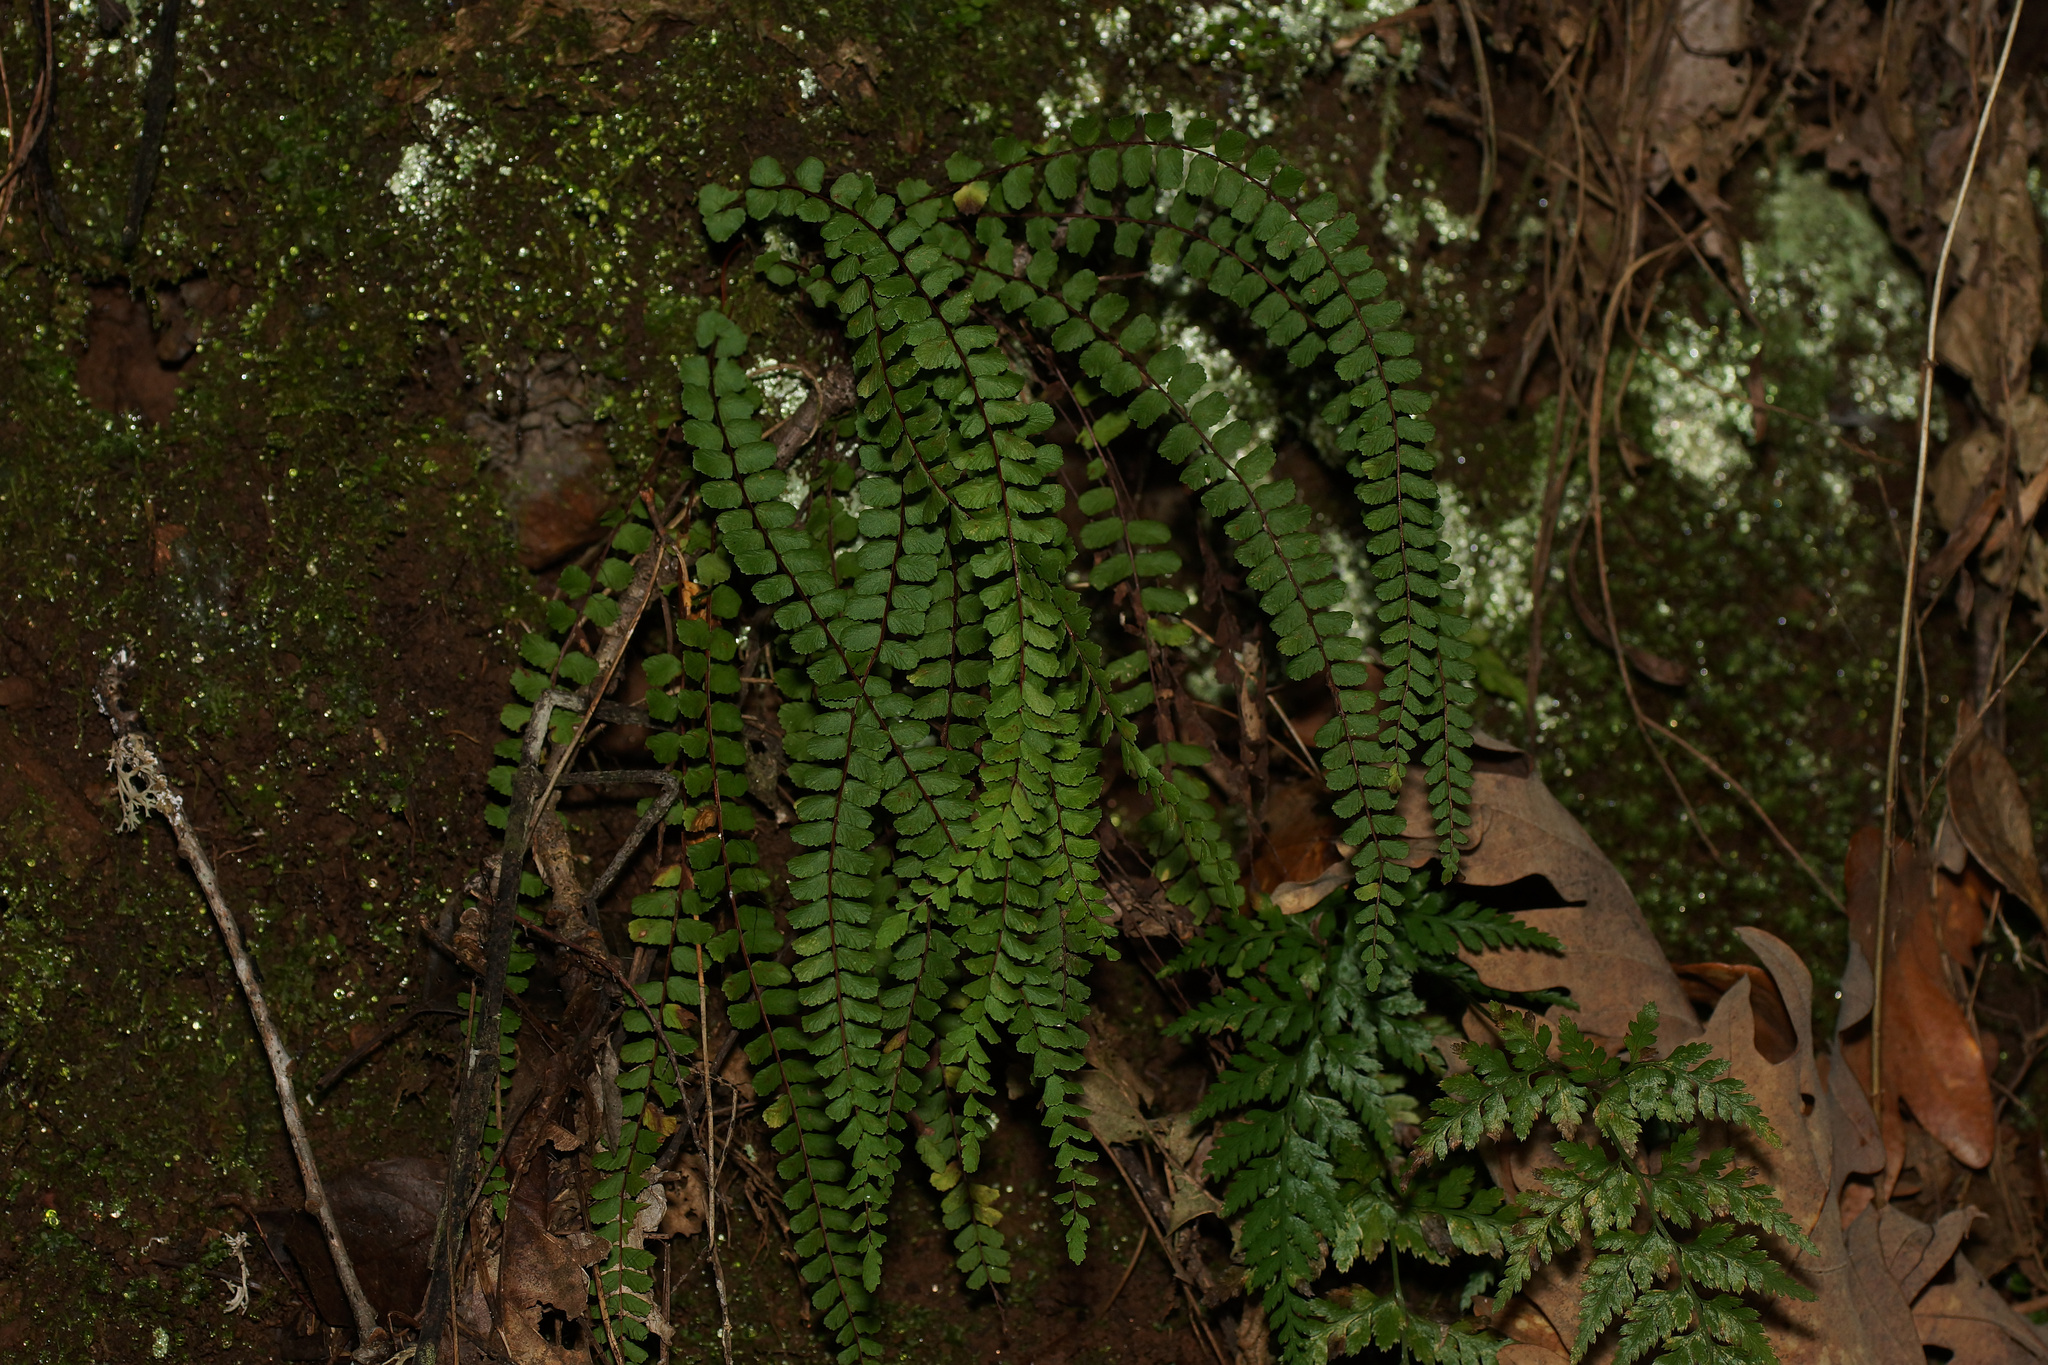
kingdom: Plantae
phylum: Tracheophyta
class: Polypodiopsida
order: Polypodiales
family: Aspleniaceae
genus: Asplenium
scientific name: Asplenium trichomanes
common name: Maidenhair spleenwort
